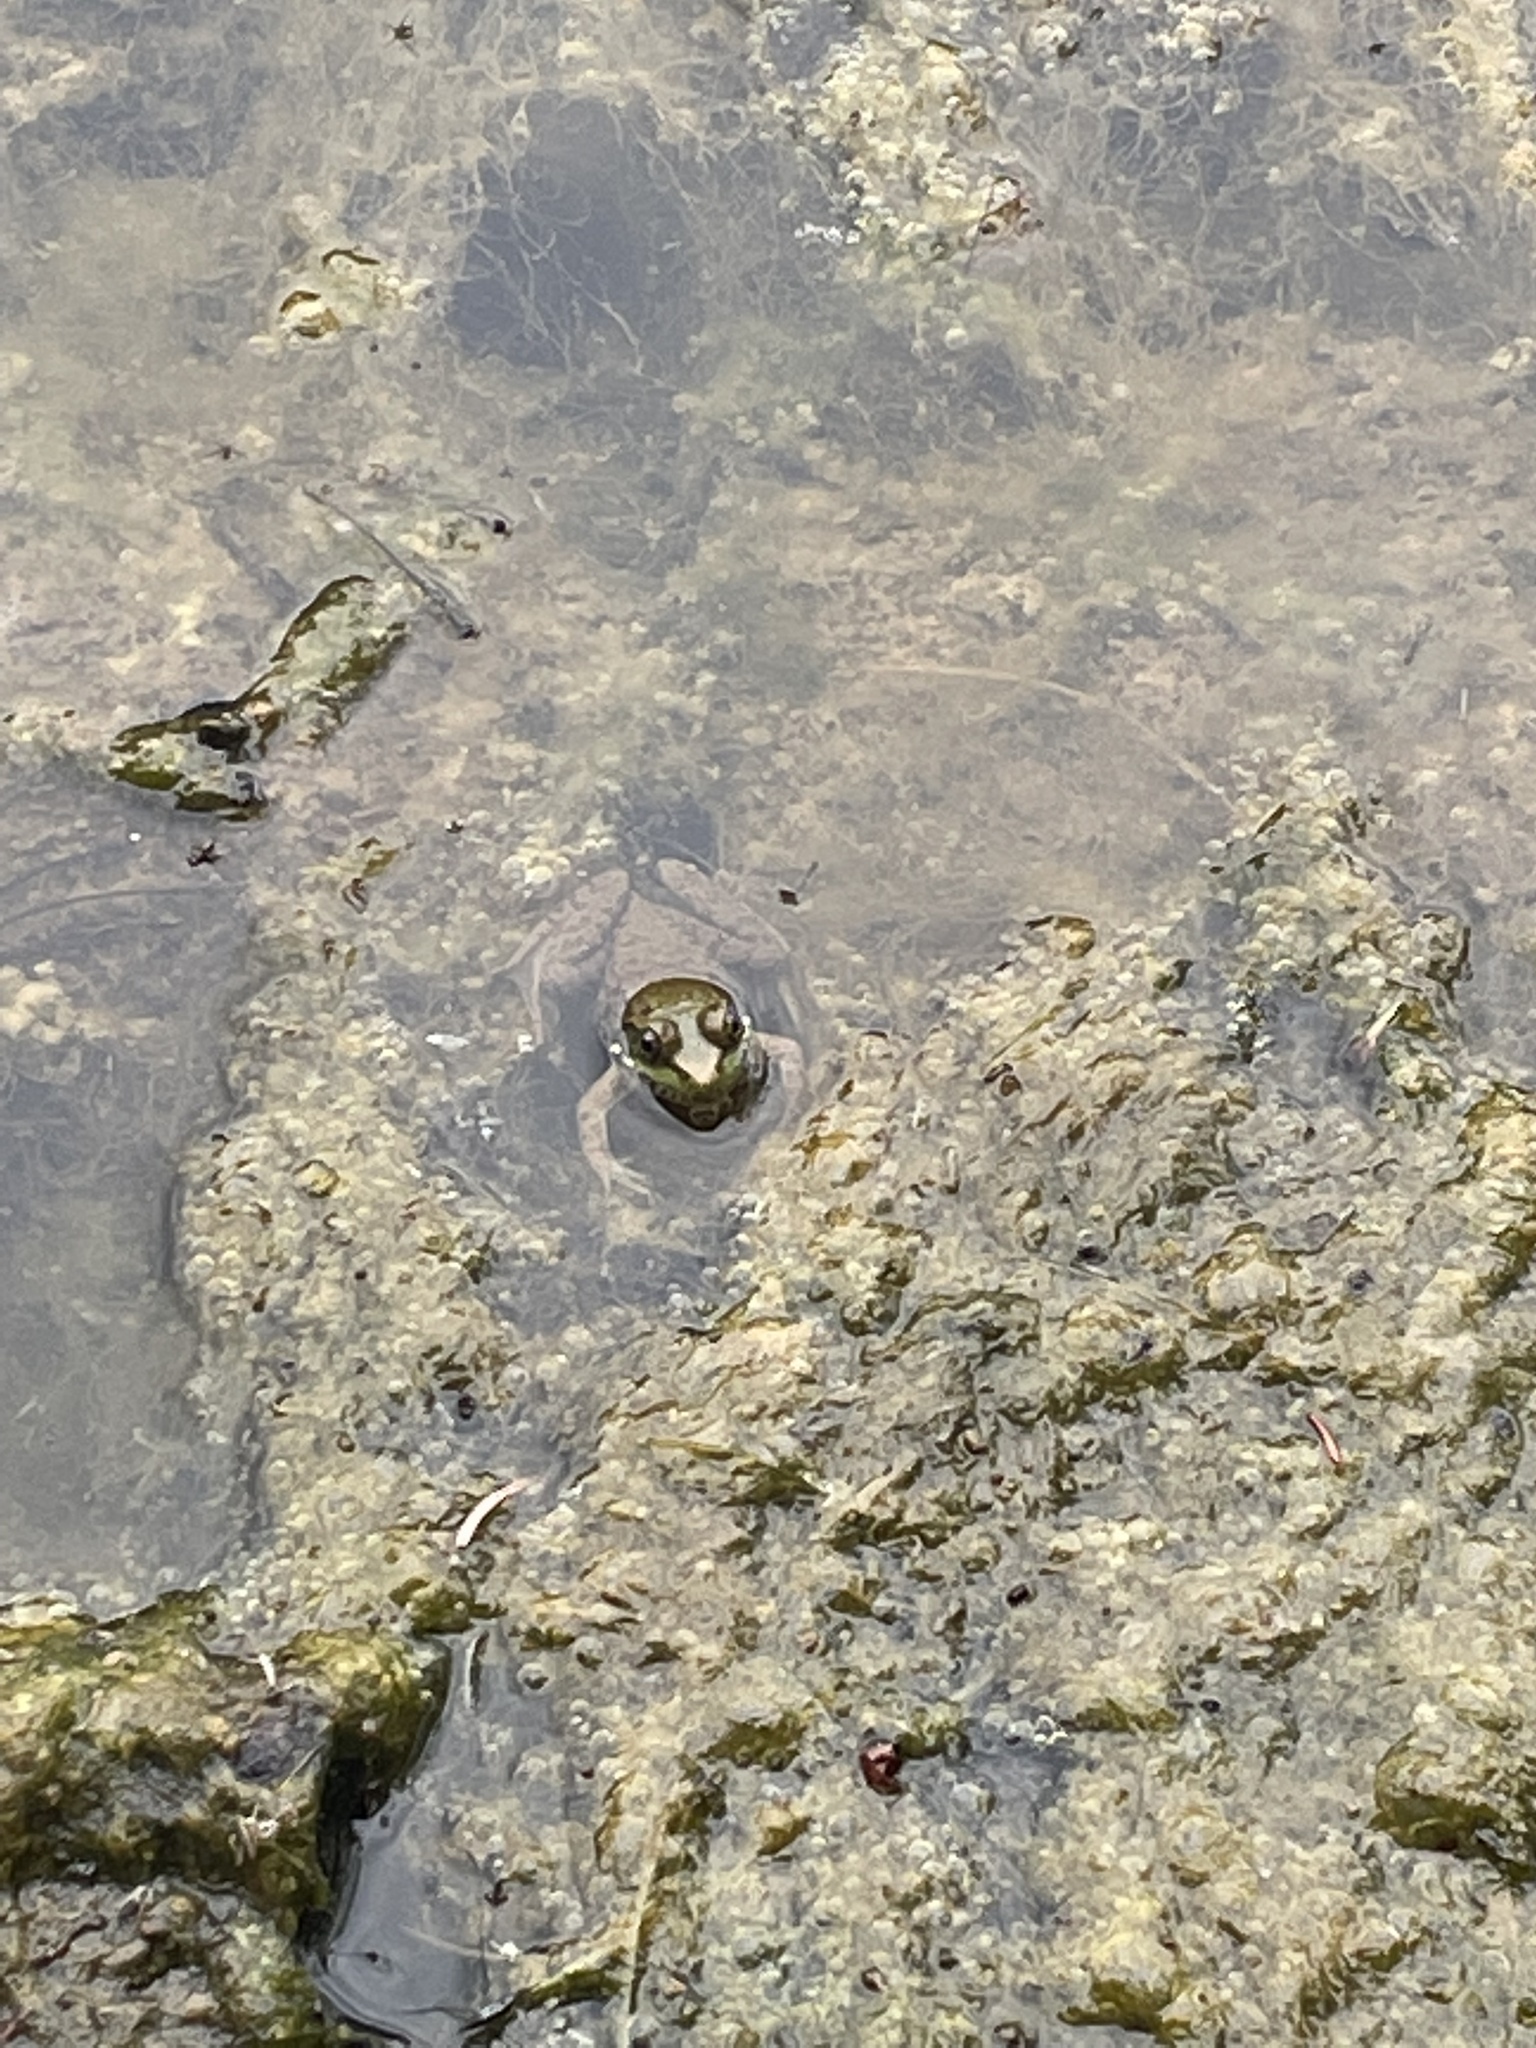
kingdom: Animalia
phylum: Chordata
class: Amphibia
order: Anura
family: Ranidae
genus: Lithobates
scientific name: Lithobates clamitans
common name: Green frog
